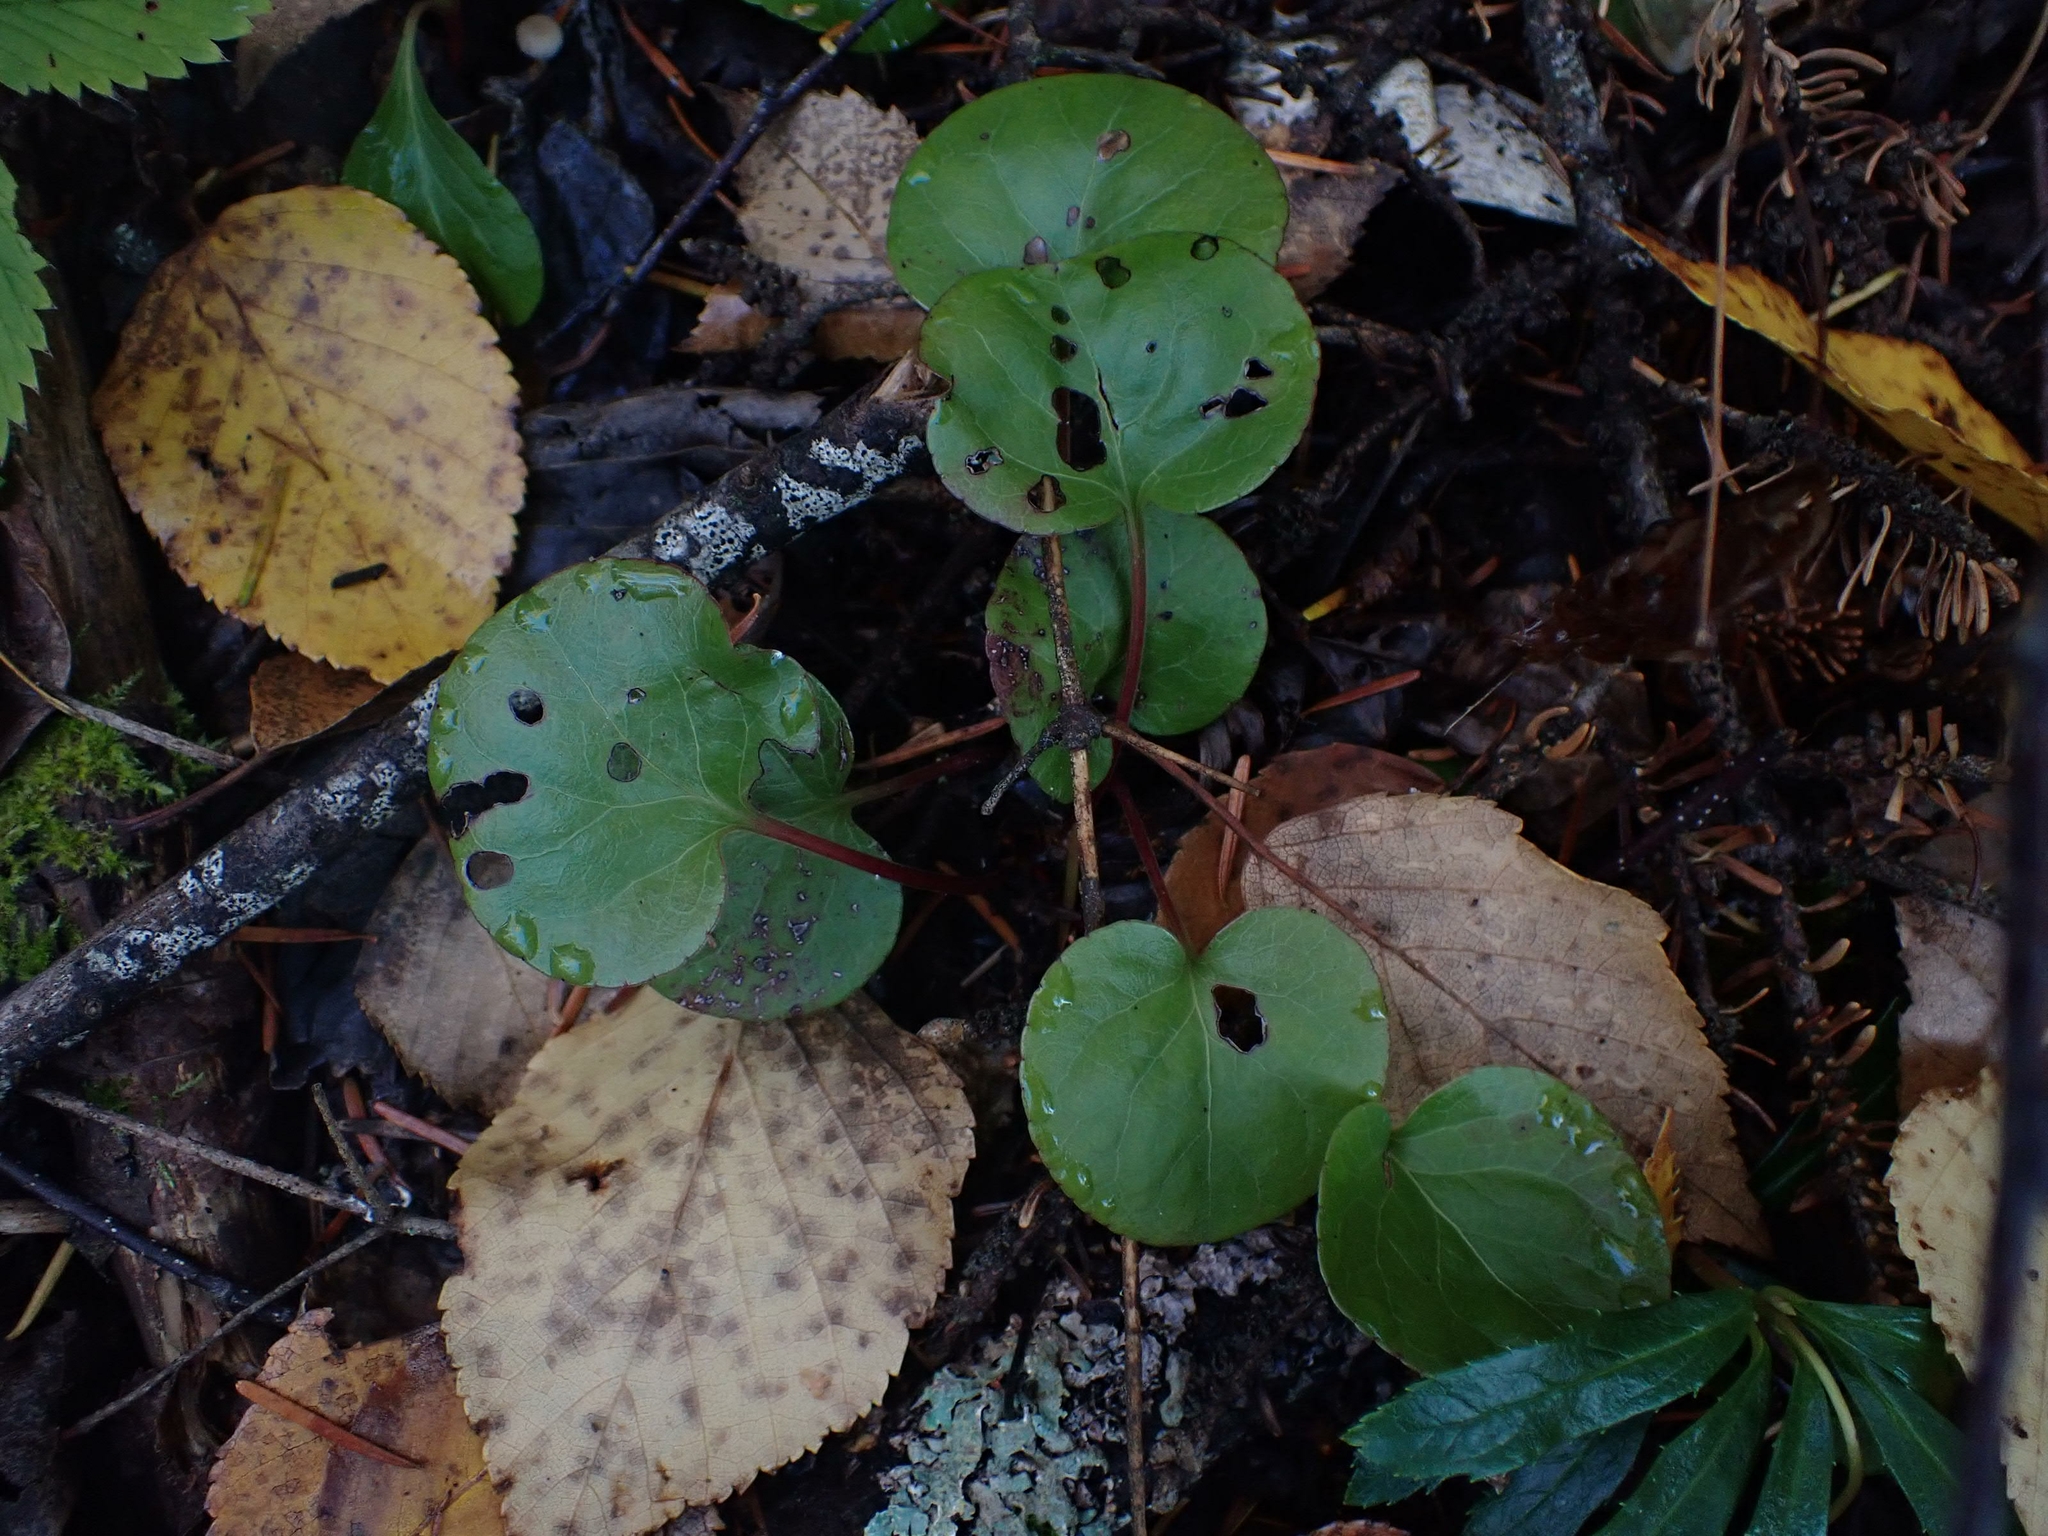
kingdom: Plantae
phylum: Tracheophyta
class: Magnoliopsida
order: Ericales
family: Ericaceae
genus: Pyrola
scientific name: Pyrola asarifolia
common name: Bog wintergreen
